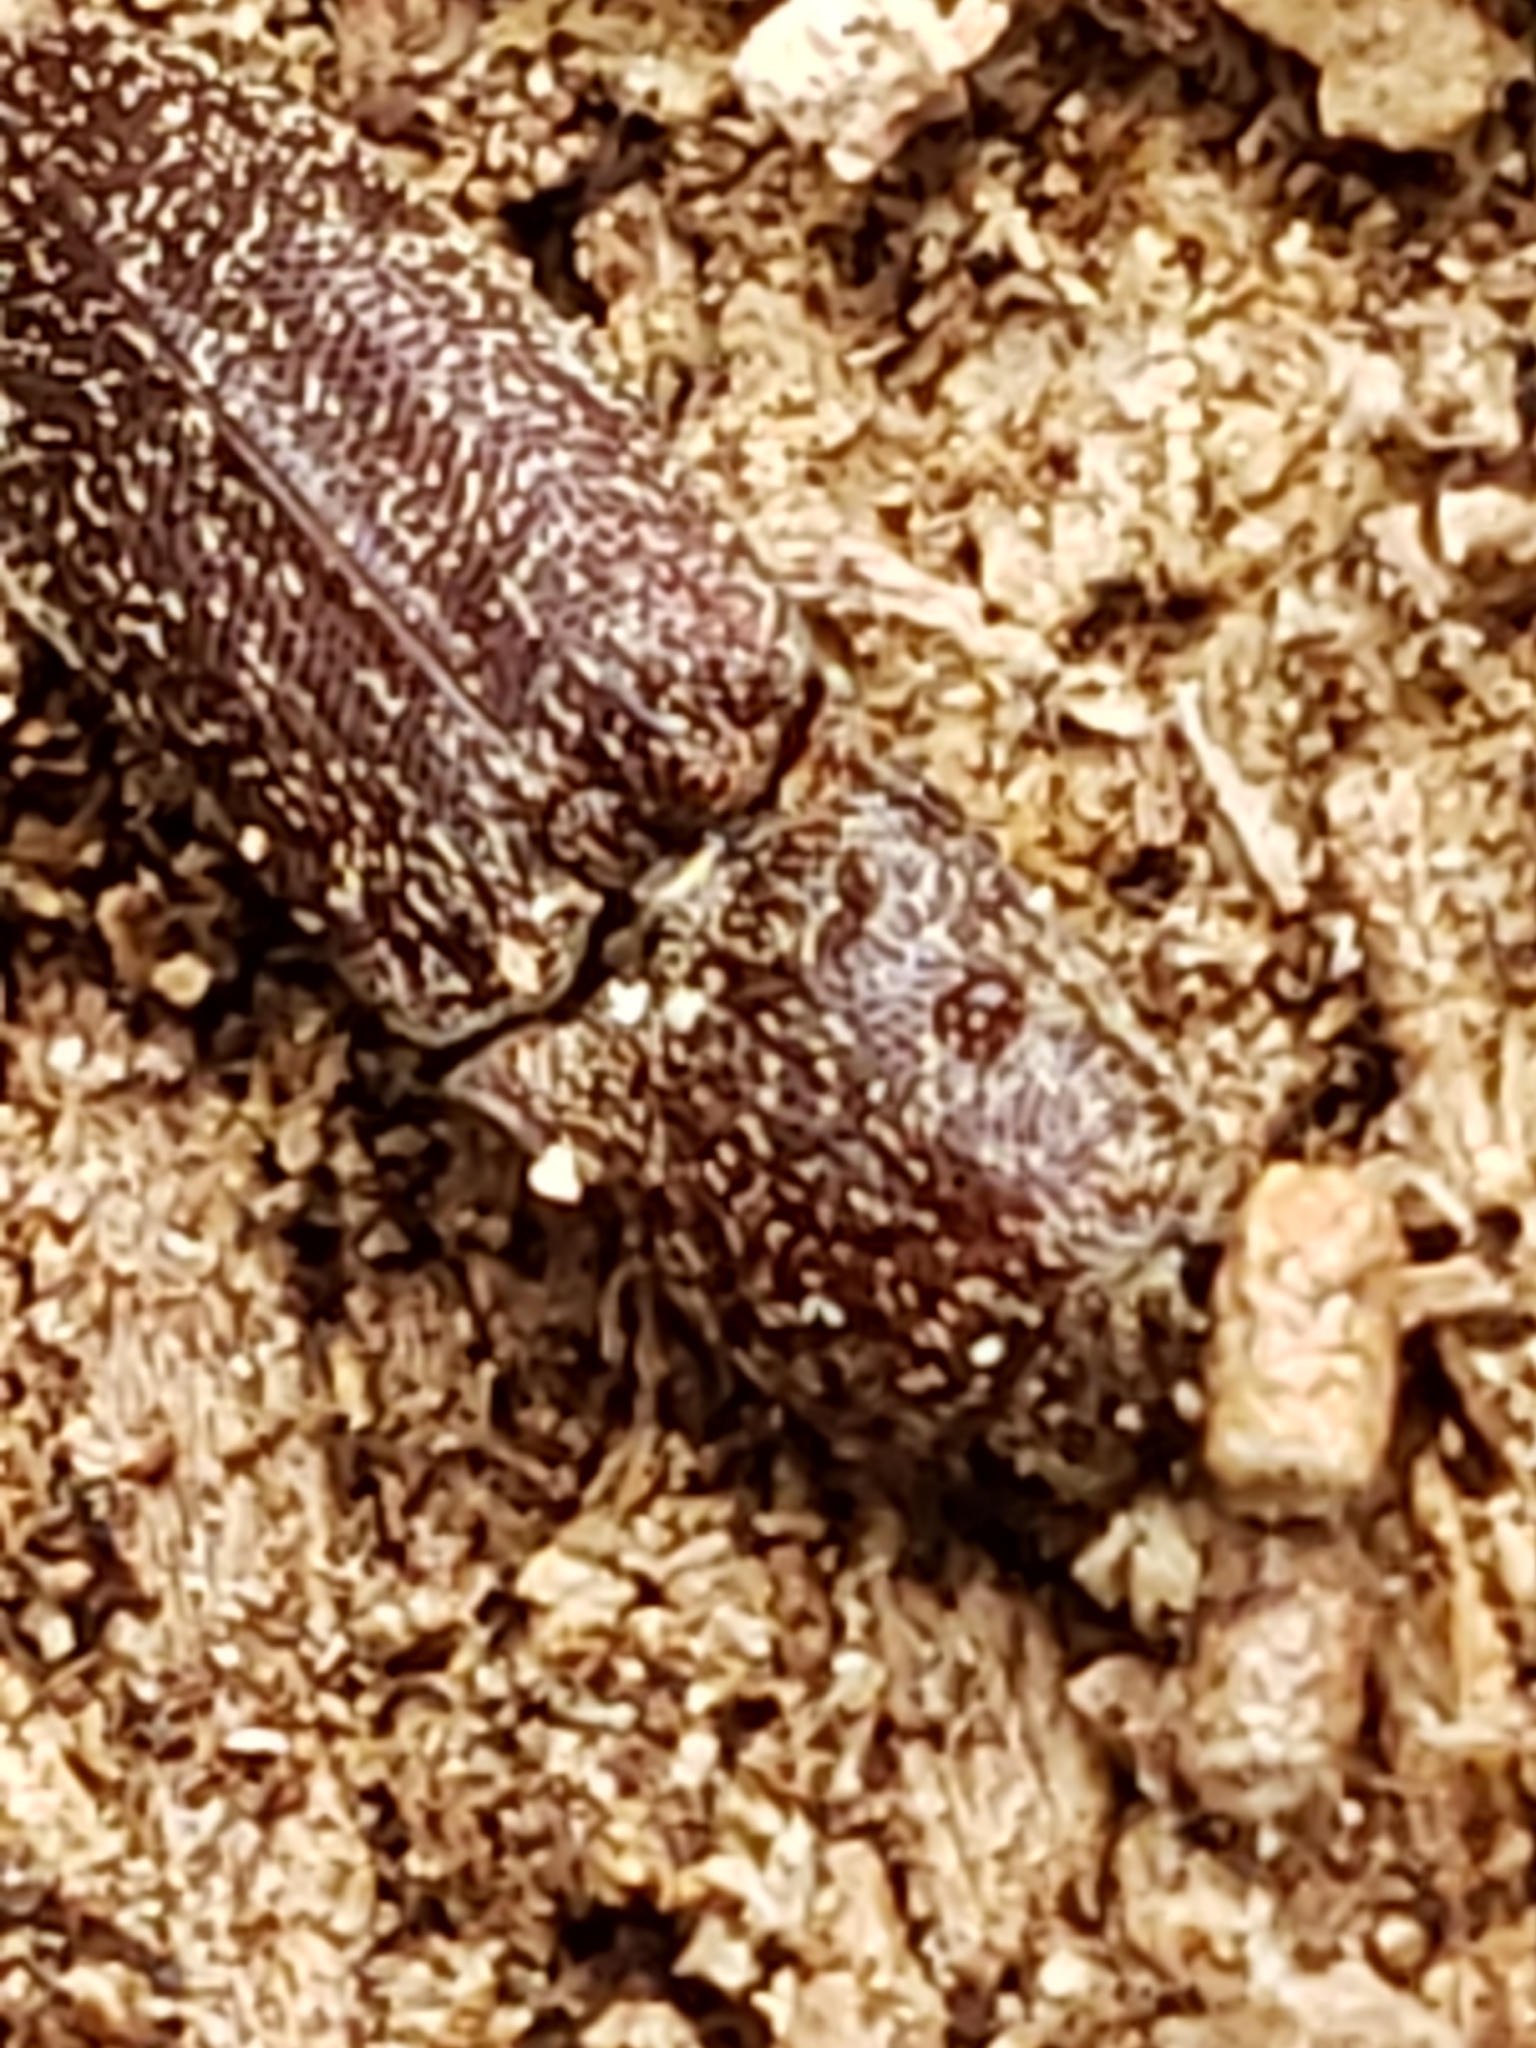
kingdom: Animalia
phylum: Arthropoda
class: Insecta
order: Coleoptera
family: Elateridae
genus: Lacon
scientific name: Lacon impressicollis
